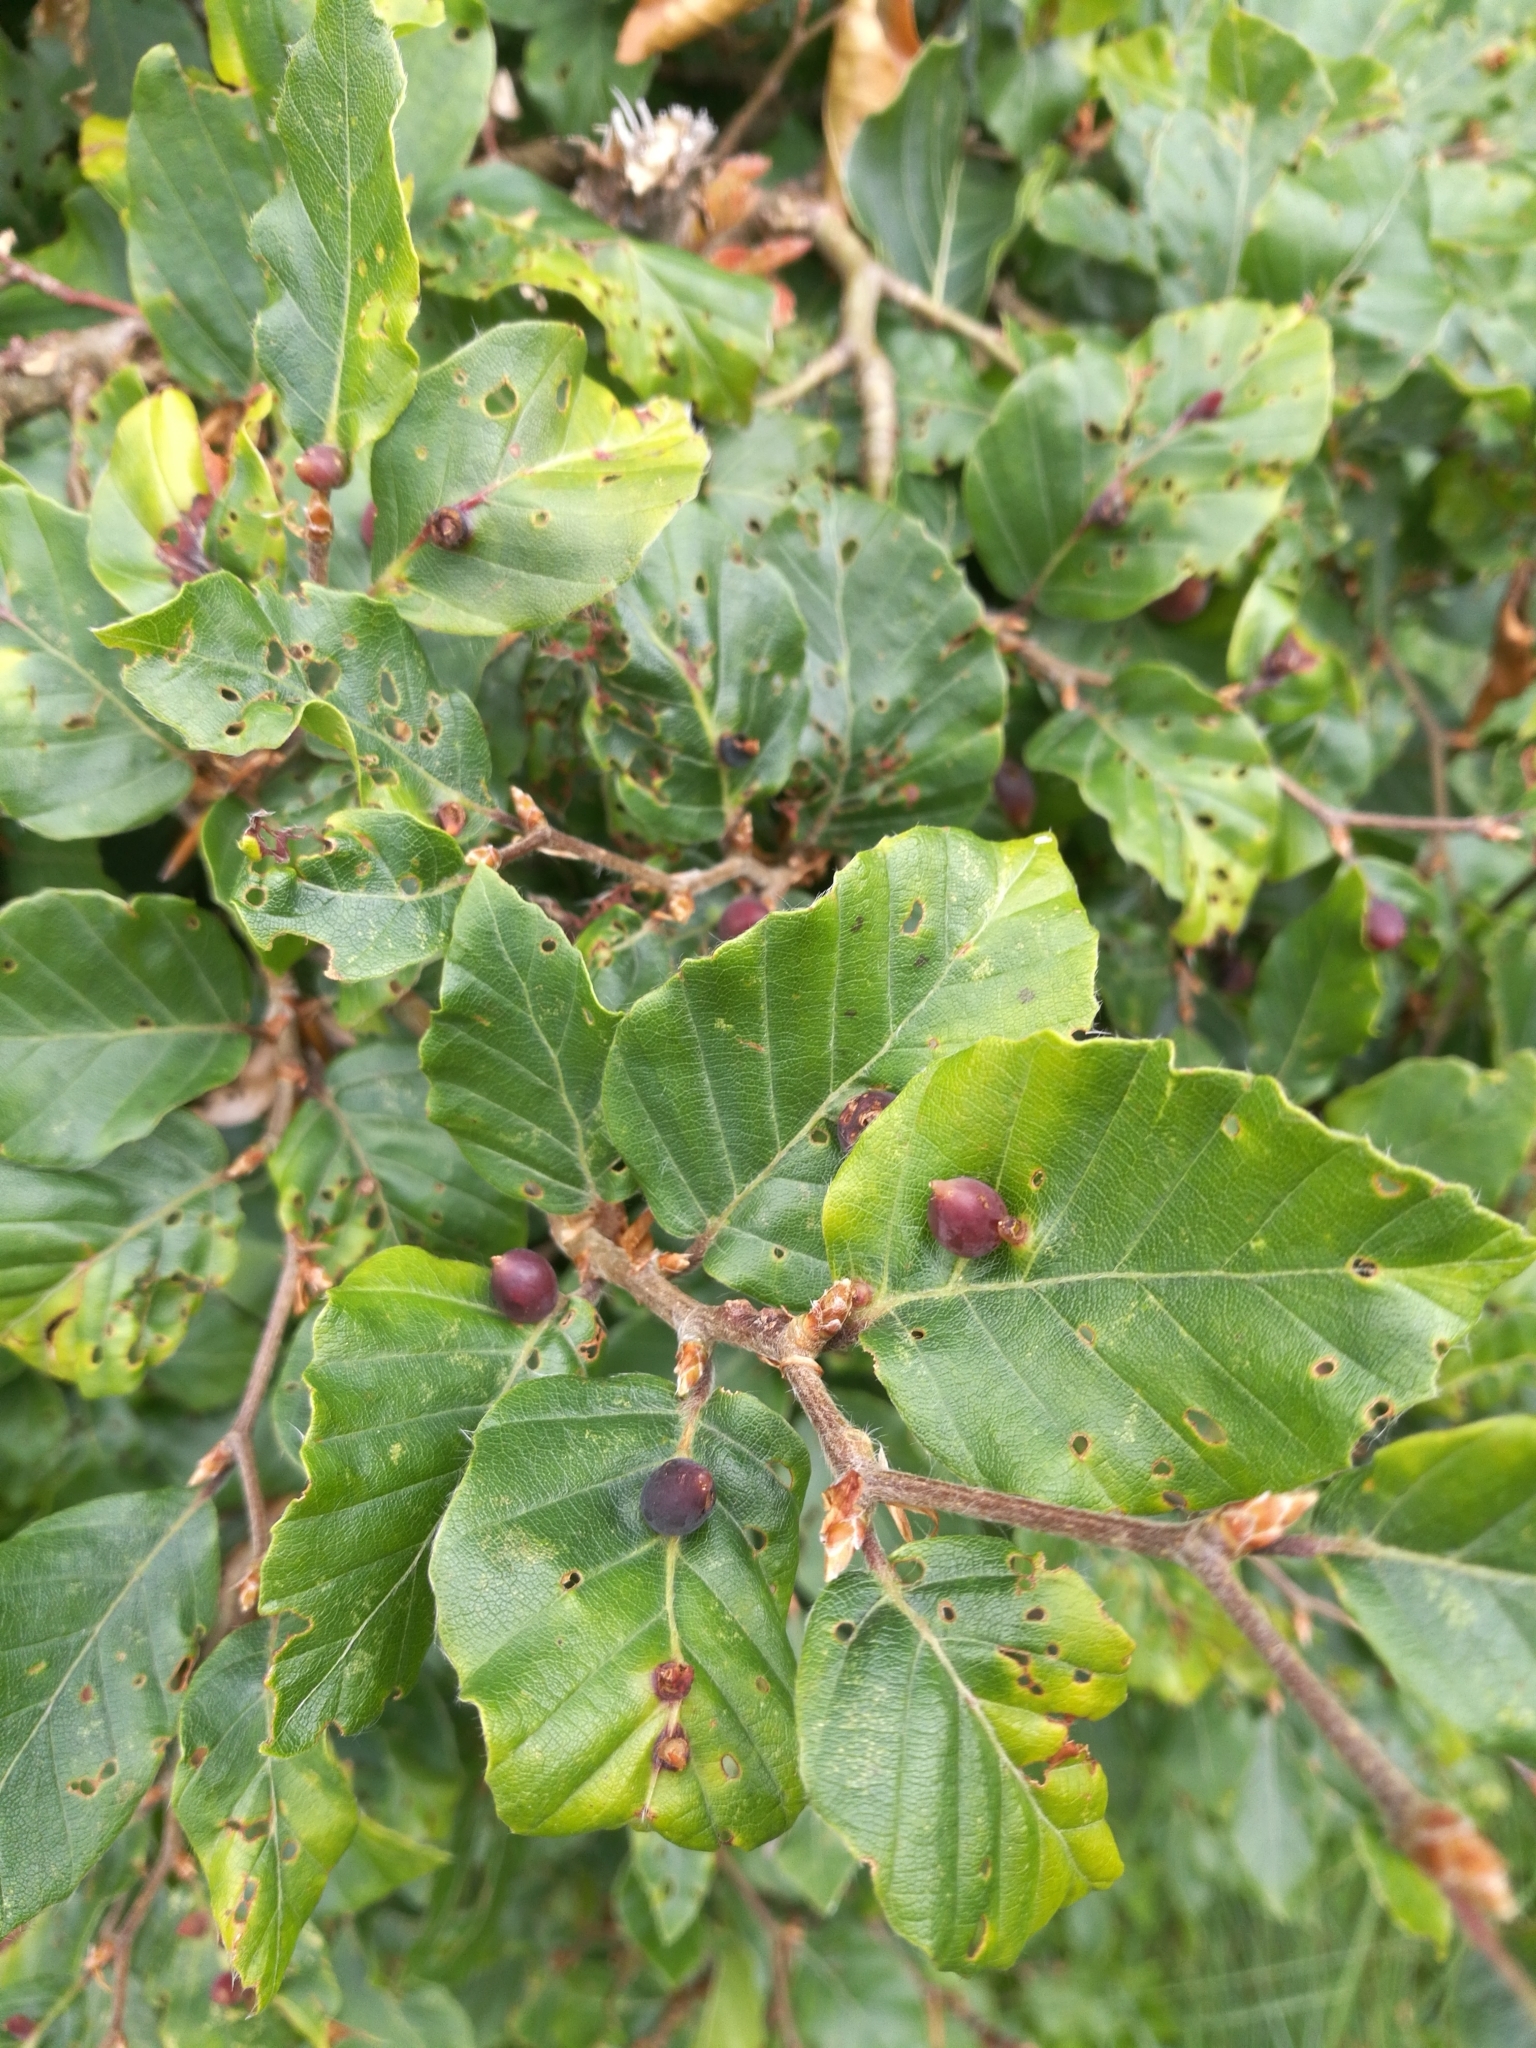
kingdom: Plantae
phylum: Tracheophyta
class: Magnoliopsida
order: Fagales
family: Fagaceae
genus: Fagus
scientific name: Fagus sylvatica
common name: Beech
